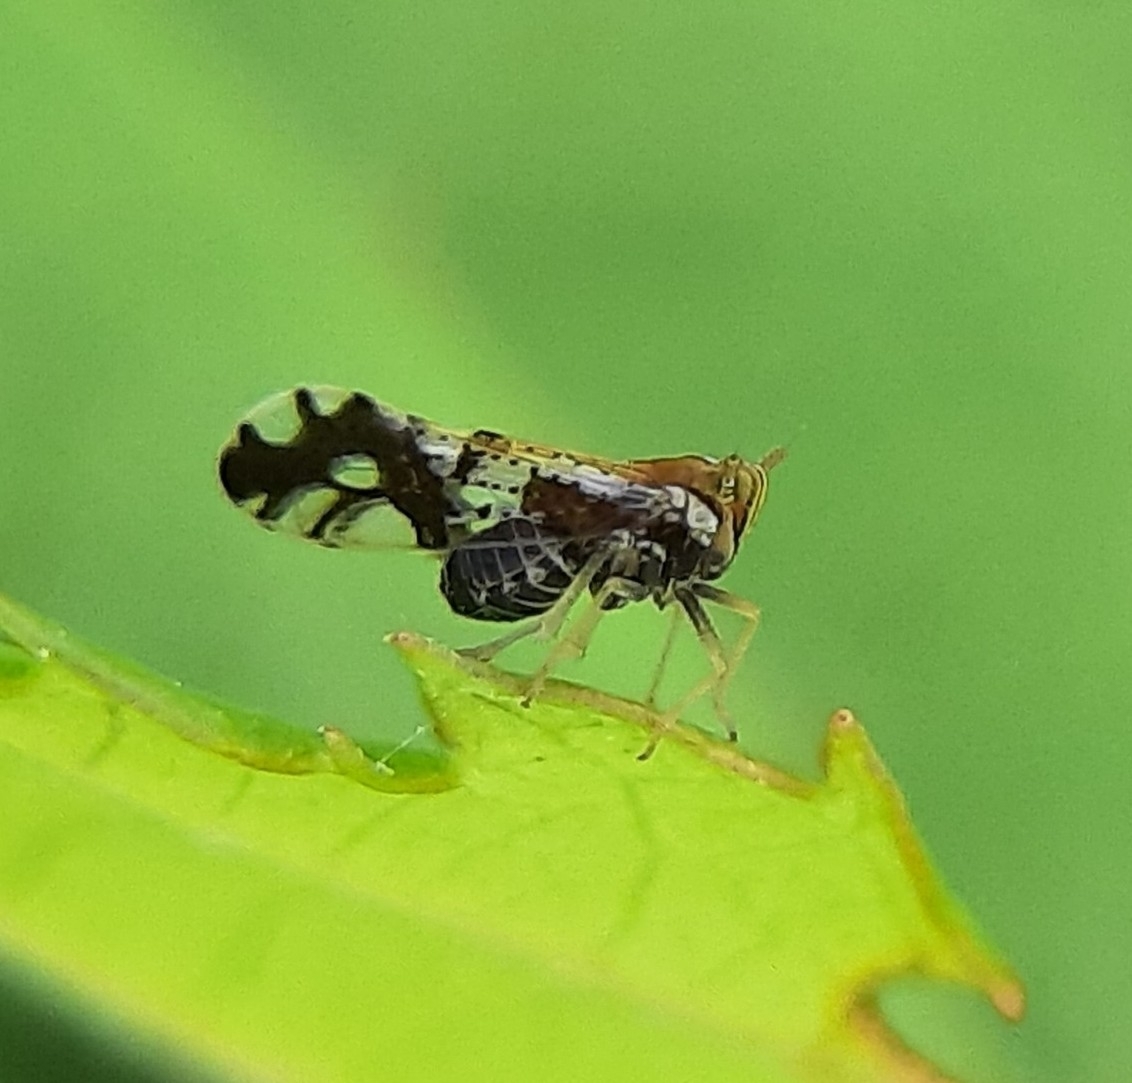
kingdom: Animalia
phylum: Arthropoda
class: Insecta
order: Hemiptera
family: Delphacidae
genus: Liburniella
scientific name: Liburniella ornata
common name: Ornate planthopper
